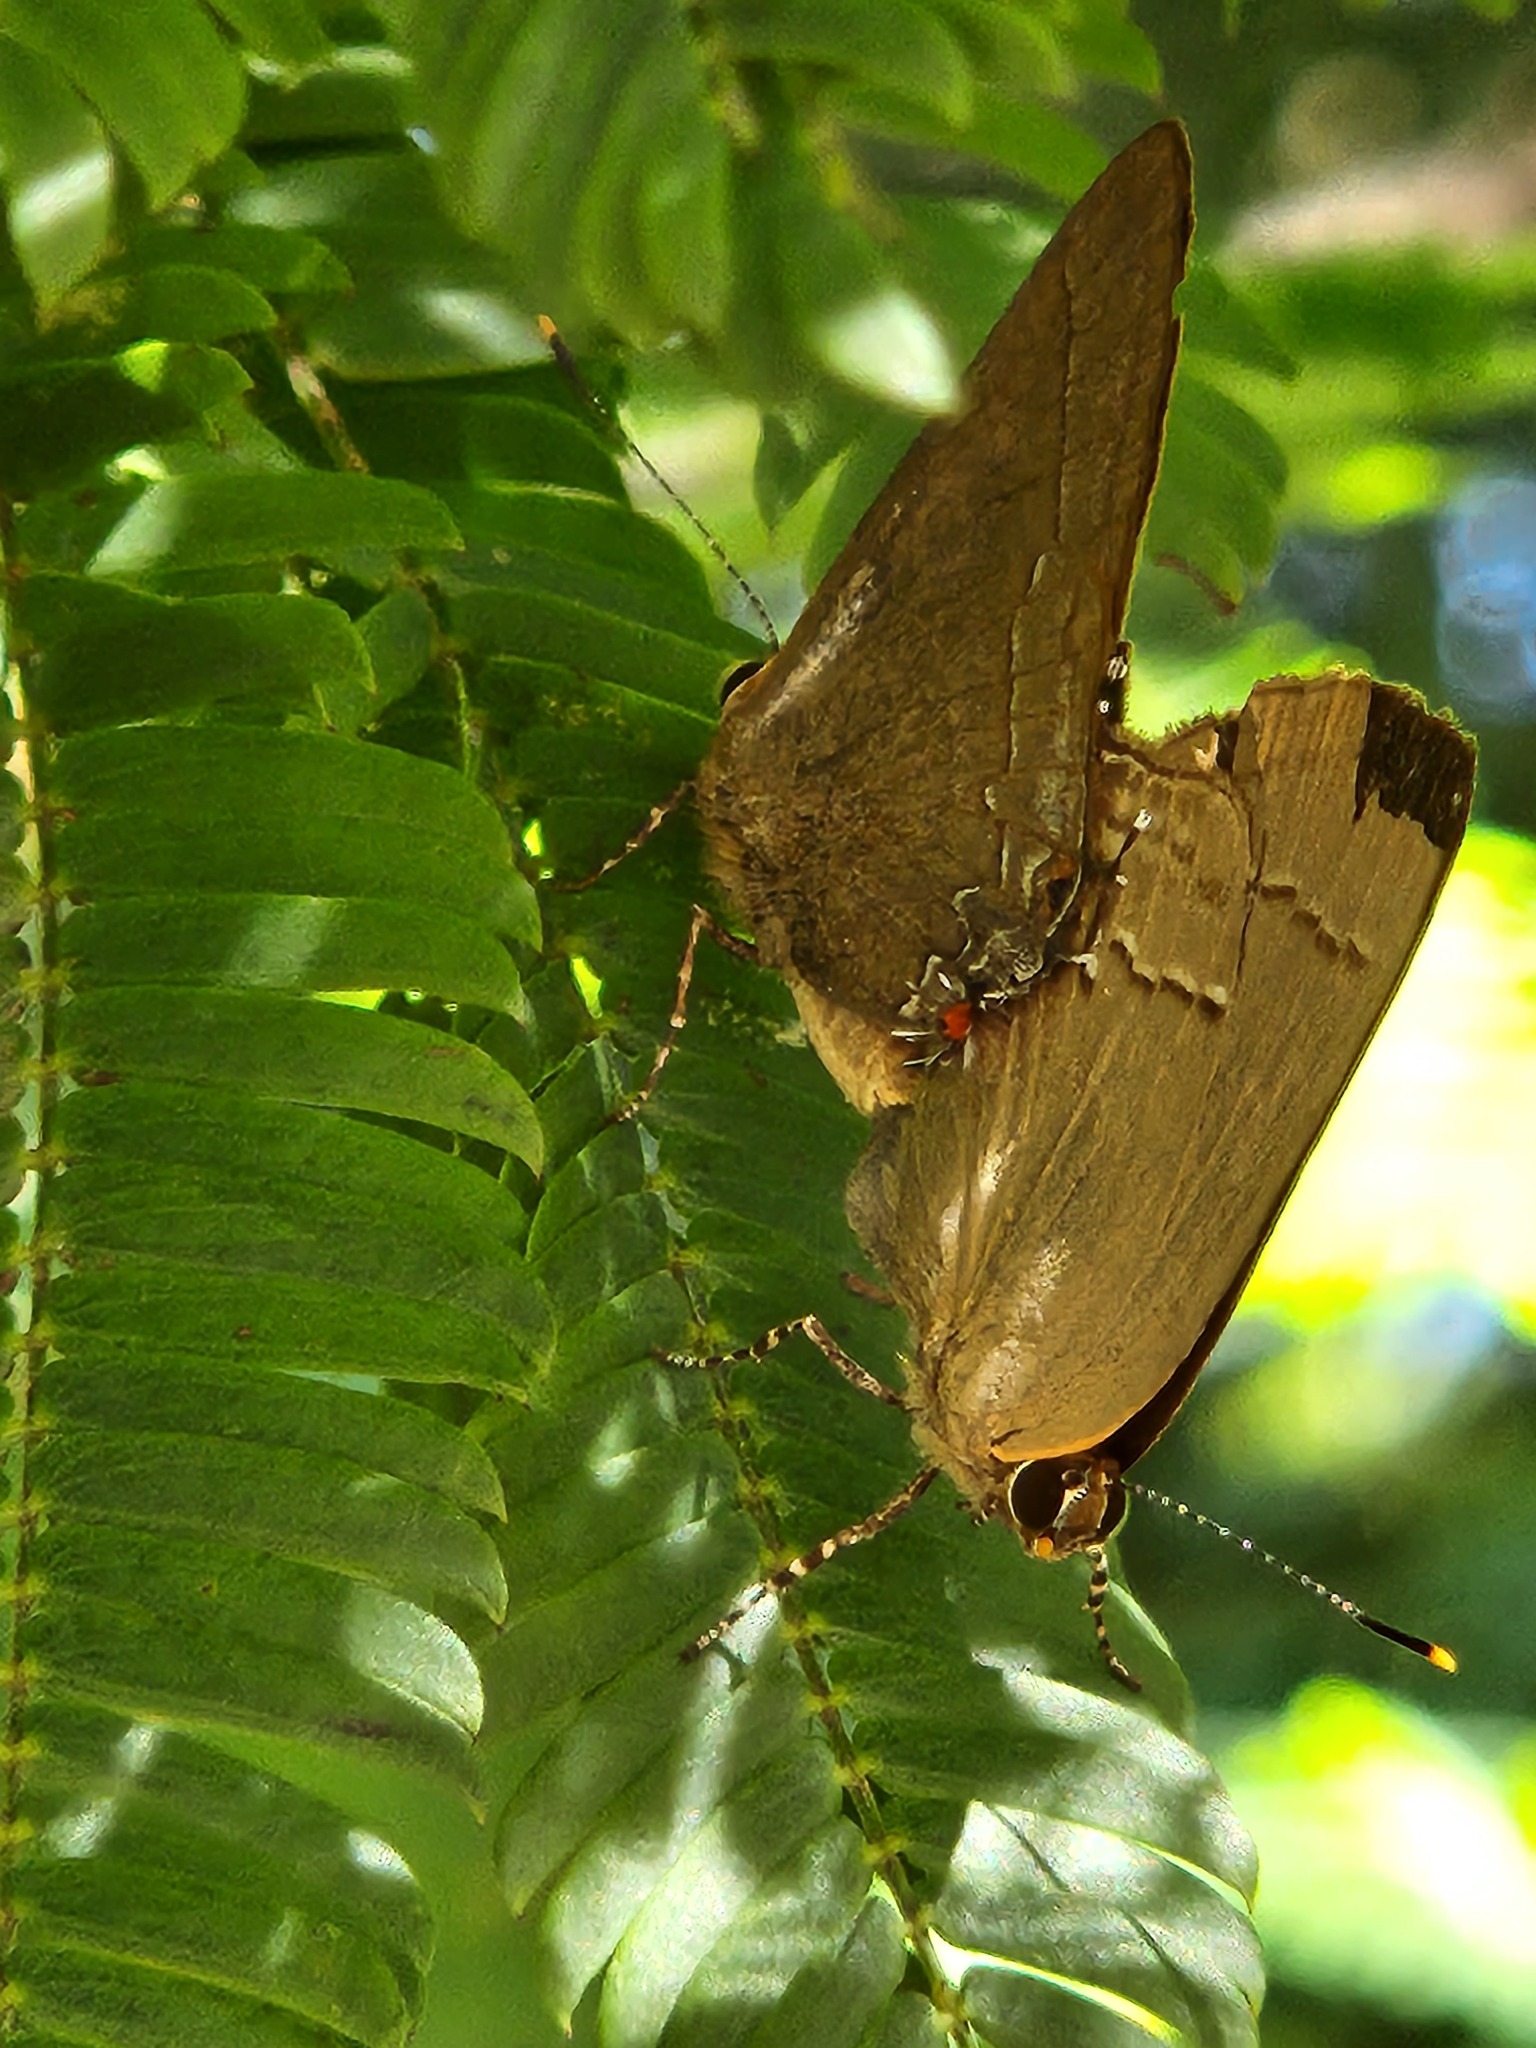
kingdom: Animalia
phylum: Arthropoda
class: Insecta
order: Lepidoptera
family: Lycaenidae
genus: Ziegleria
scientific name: Ziegleria hesperitis
